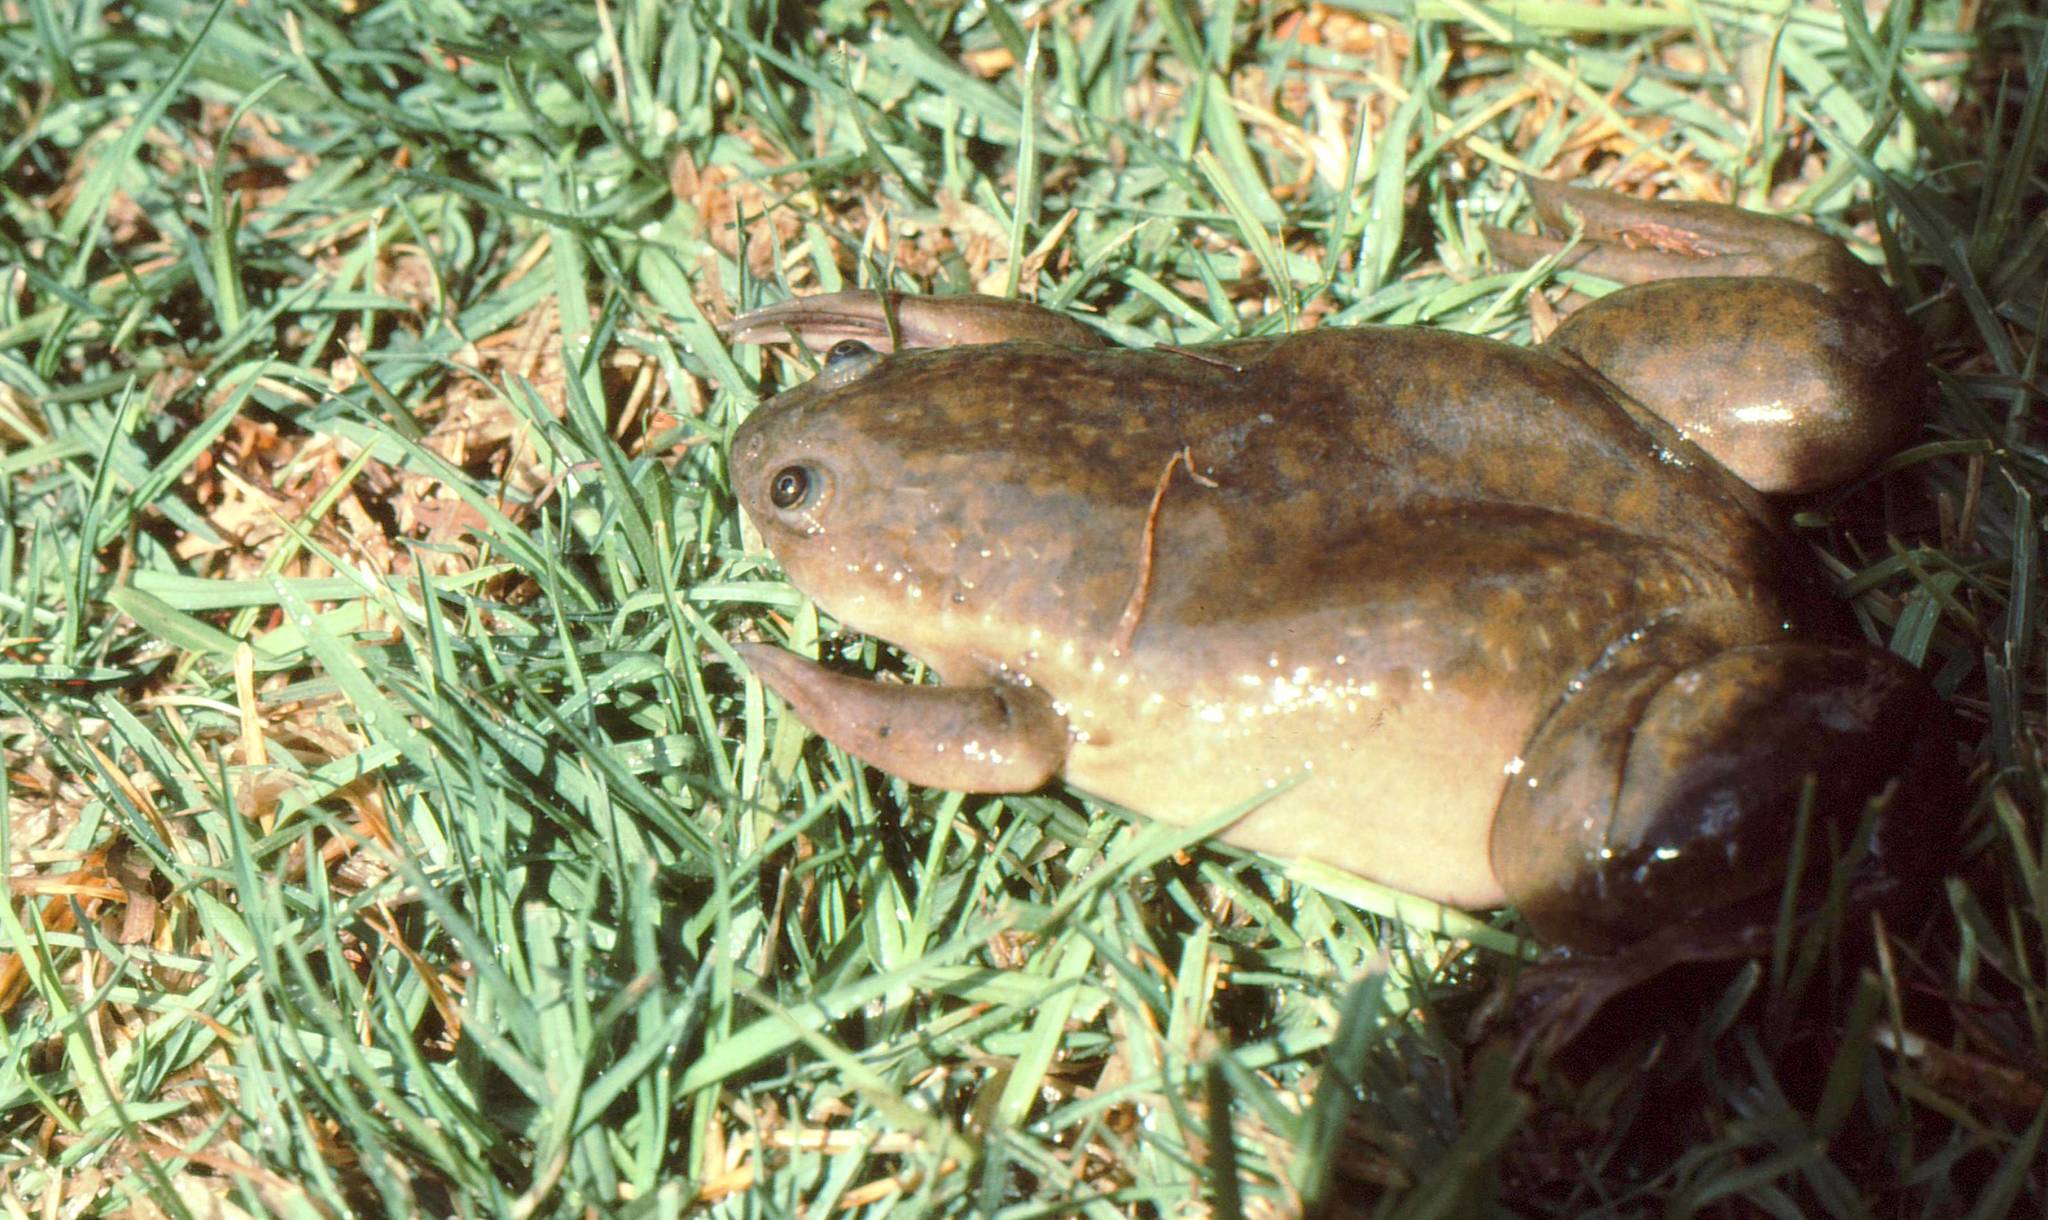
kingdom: Animalia
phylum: Chordata
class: Amphibia
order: Anura
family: Pipidae
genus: Xenopus
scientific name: Xenopus laevis
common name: African clawed frog
